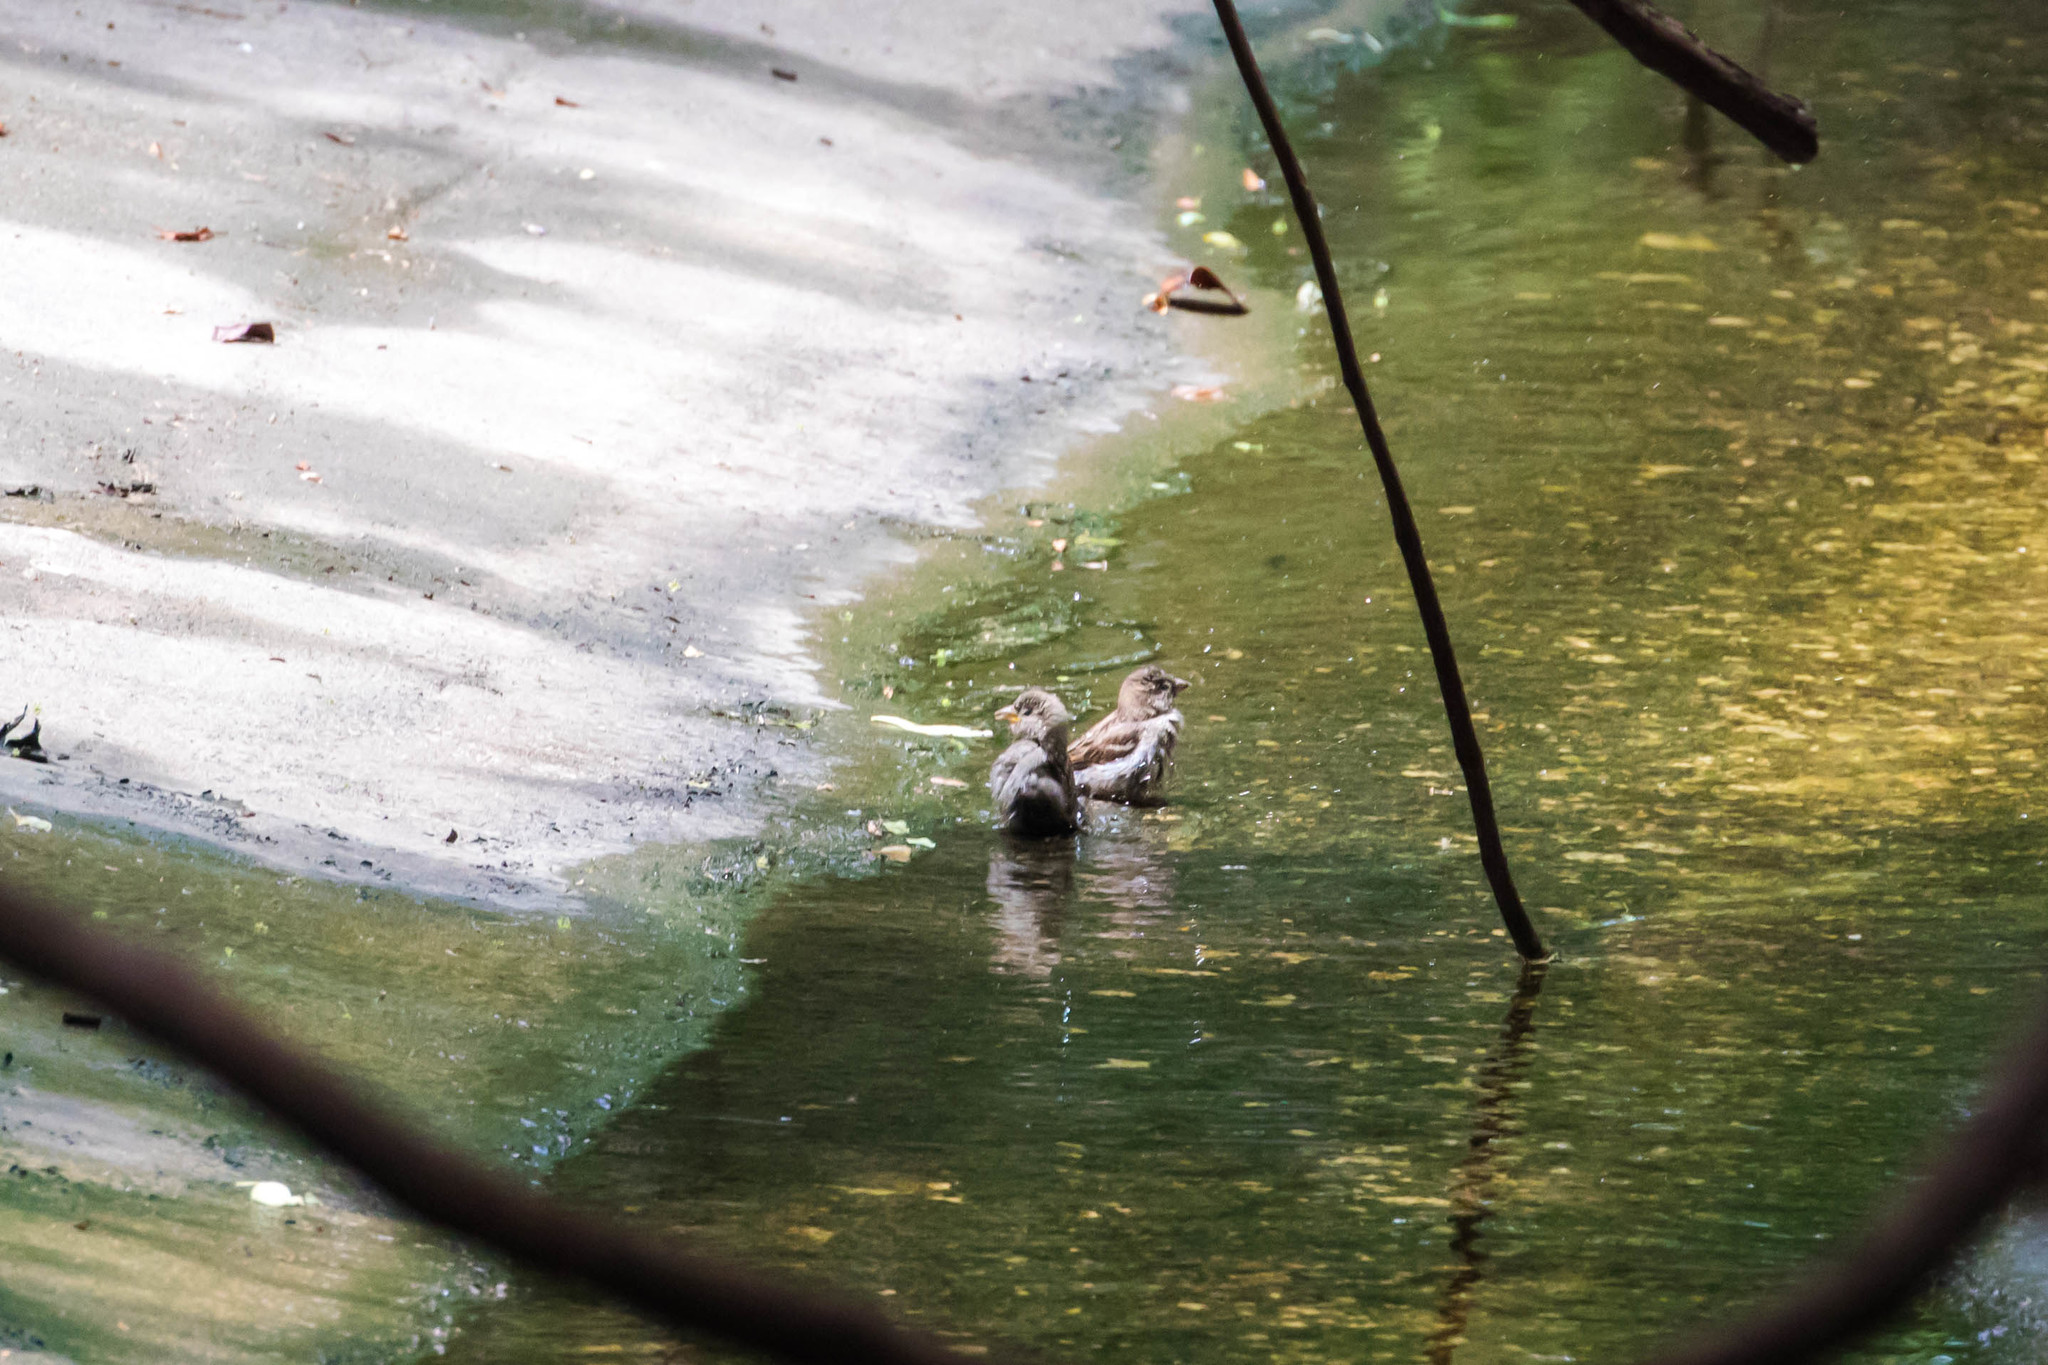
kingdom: Animalia
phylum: Chordata
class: Aves
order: Passeriformes
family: Passeridae
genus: Passer
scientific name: Passer domesticus
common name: House sparrow
